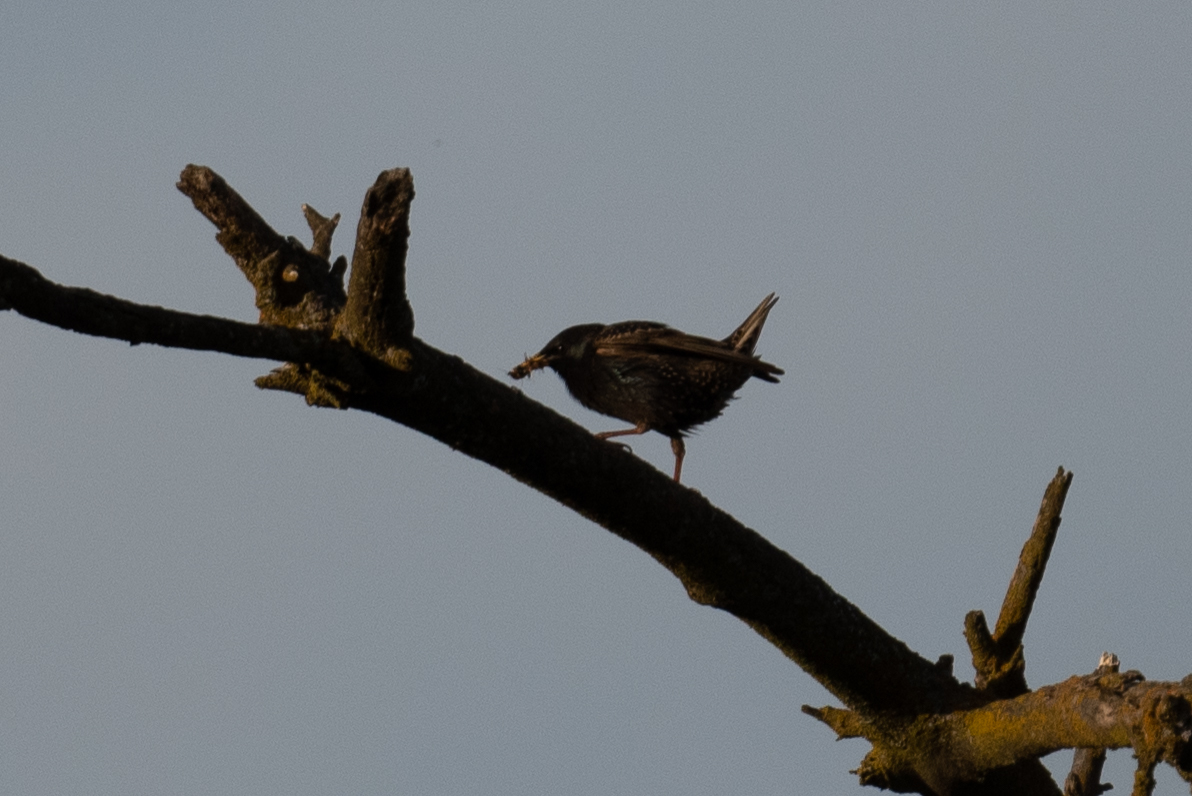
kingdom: Animalia
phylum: Chordata
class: Aves
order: Passeriformes
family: Sturnidae
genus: Sturnus
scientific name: Sturnus vulgaris
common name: Common starling
